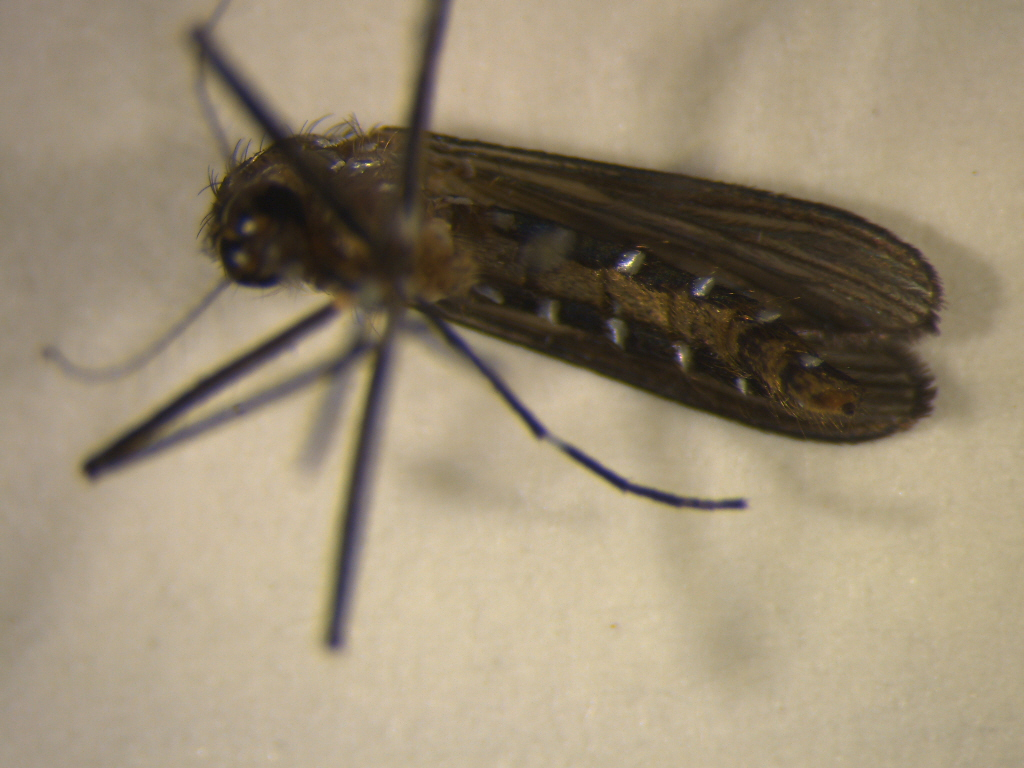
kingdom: Animalia
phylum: Arthropoda
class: Insecta
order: Diptera
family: Culicidae
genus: Aedes
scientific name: Aedes notoscriptus
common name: Australian backyard mosquito
